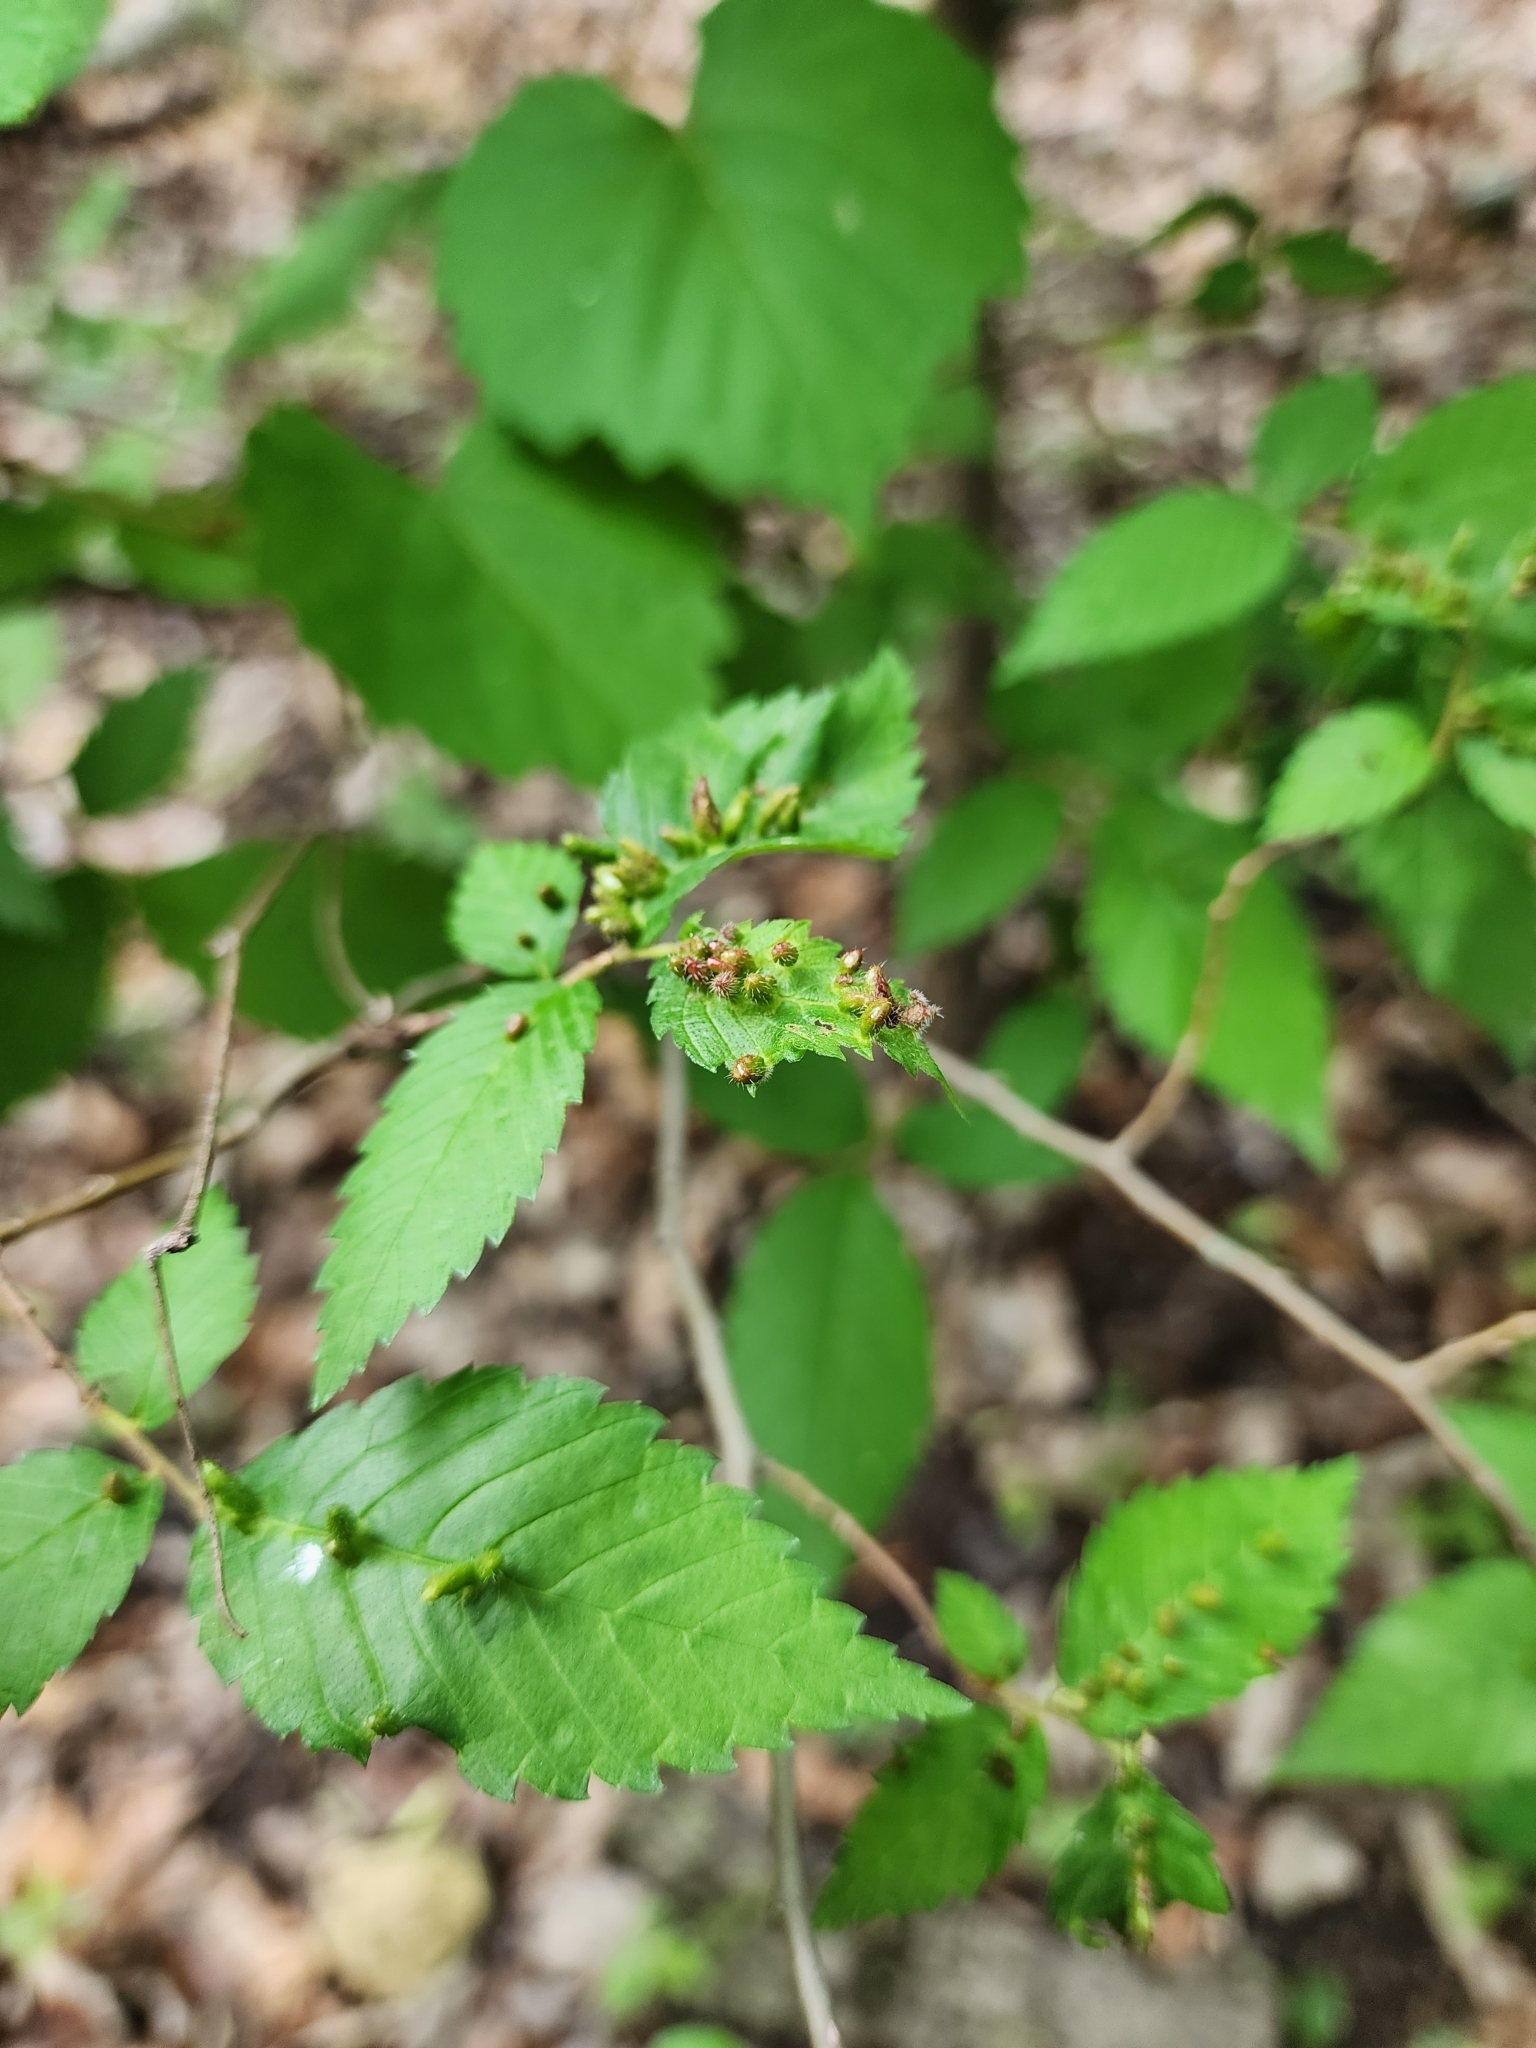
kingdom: Animalia
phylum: Arthropoda
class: Arachnida
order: Trombidiformes
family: Eriophyidae
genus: Aceria
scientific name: Aceria
